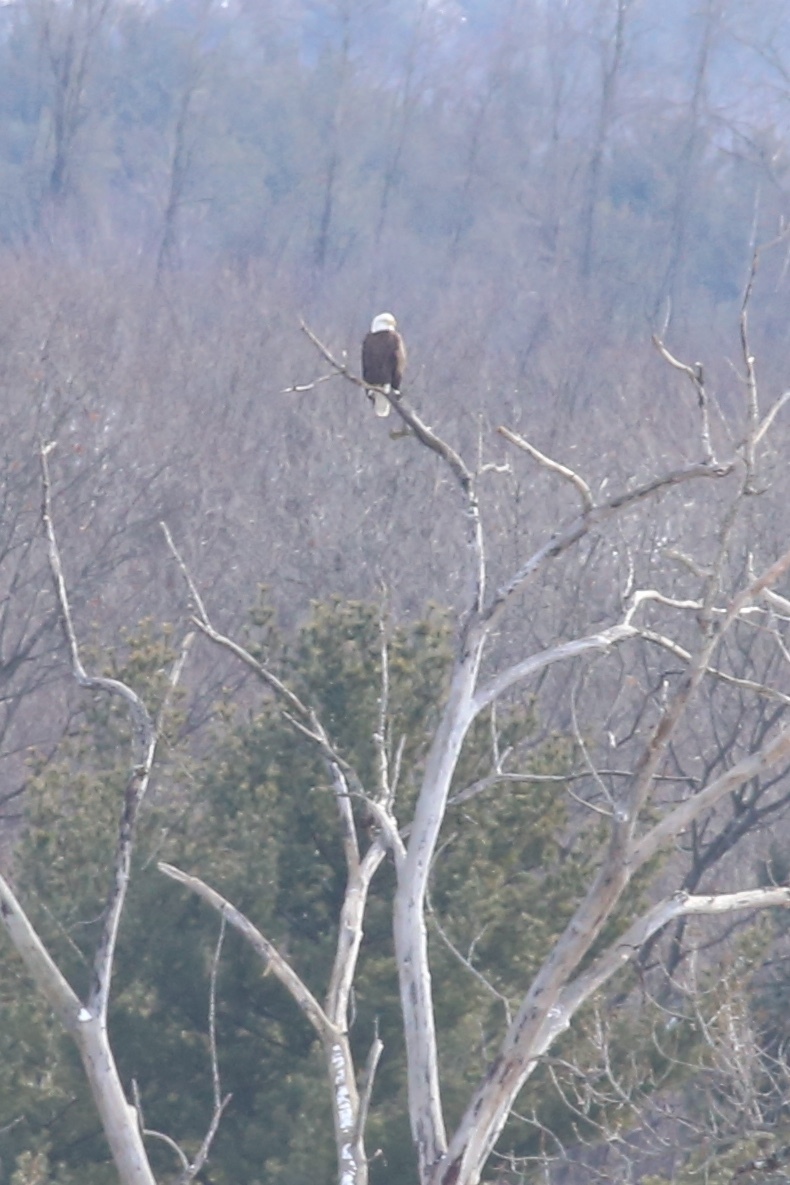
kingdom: Animalia
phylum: Chordata
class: Aves
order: Accipitriformes
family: Accipitridae
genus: Haliaeetus
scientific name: Haliaeetus leucocephalus
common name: Bald eagle
